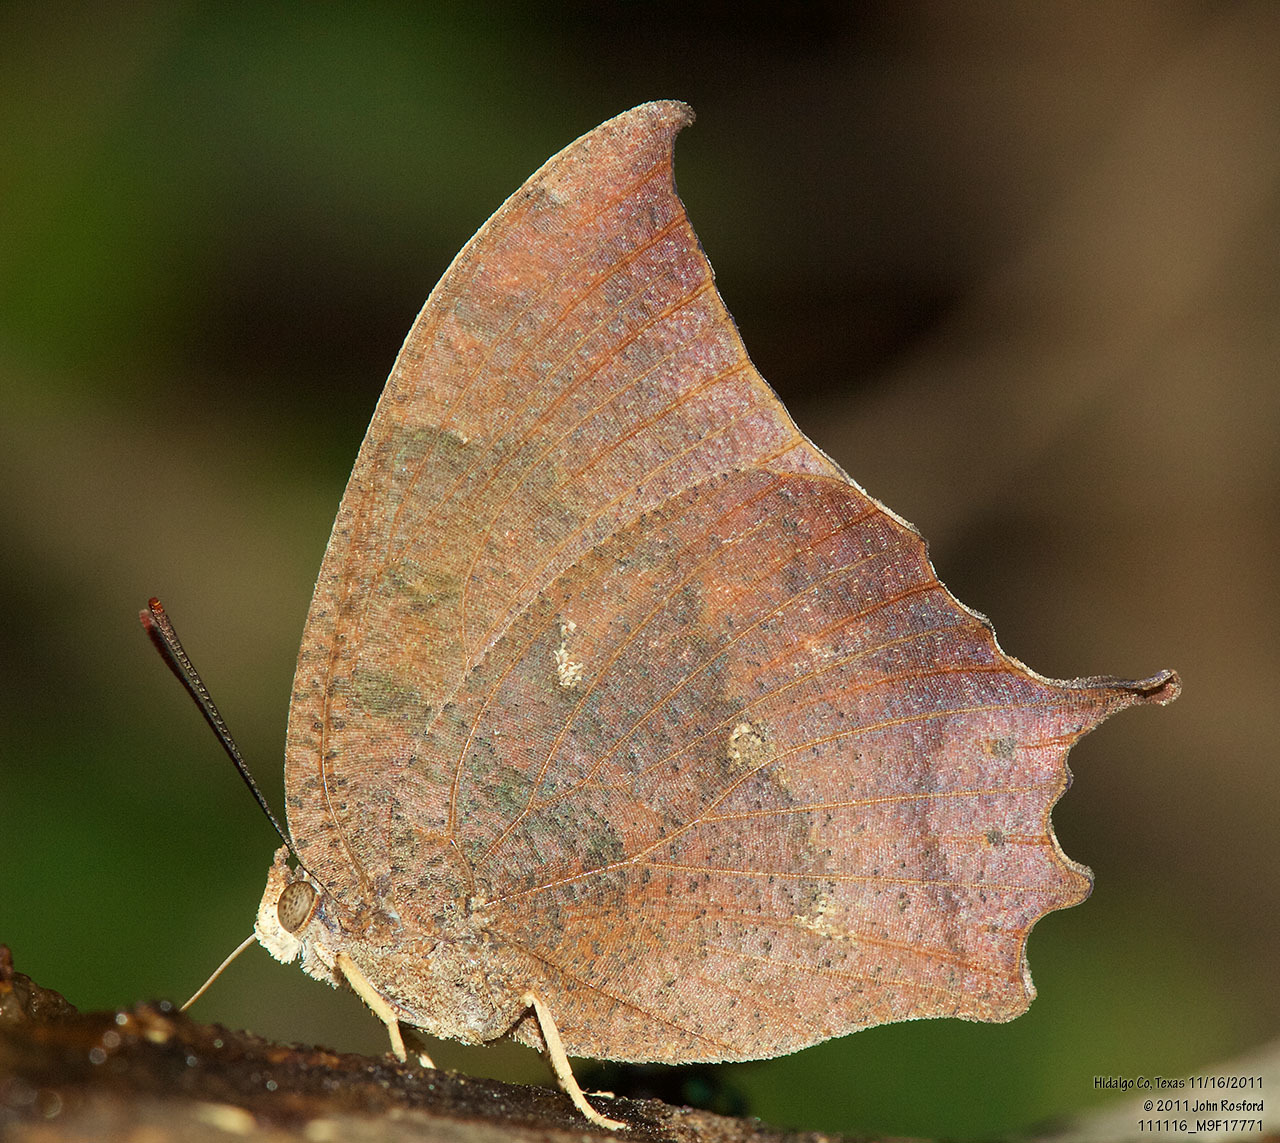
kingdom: Animalia
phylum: Arthropoda
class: Insecta
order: Lepidoptera
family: Nymphalidae
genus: Anaea
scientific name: Anaea aidea
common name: Tropical leafwing
